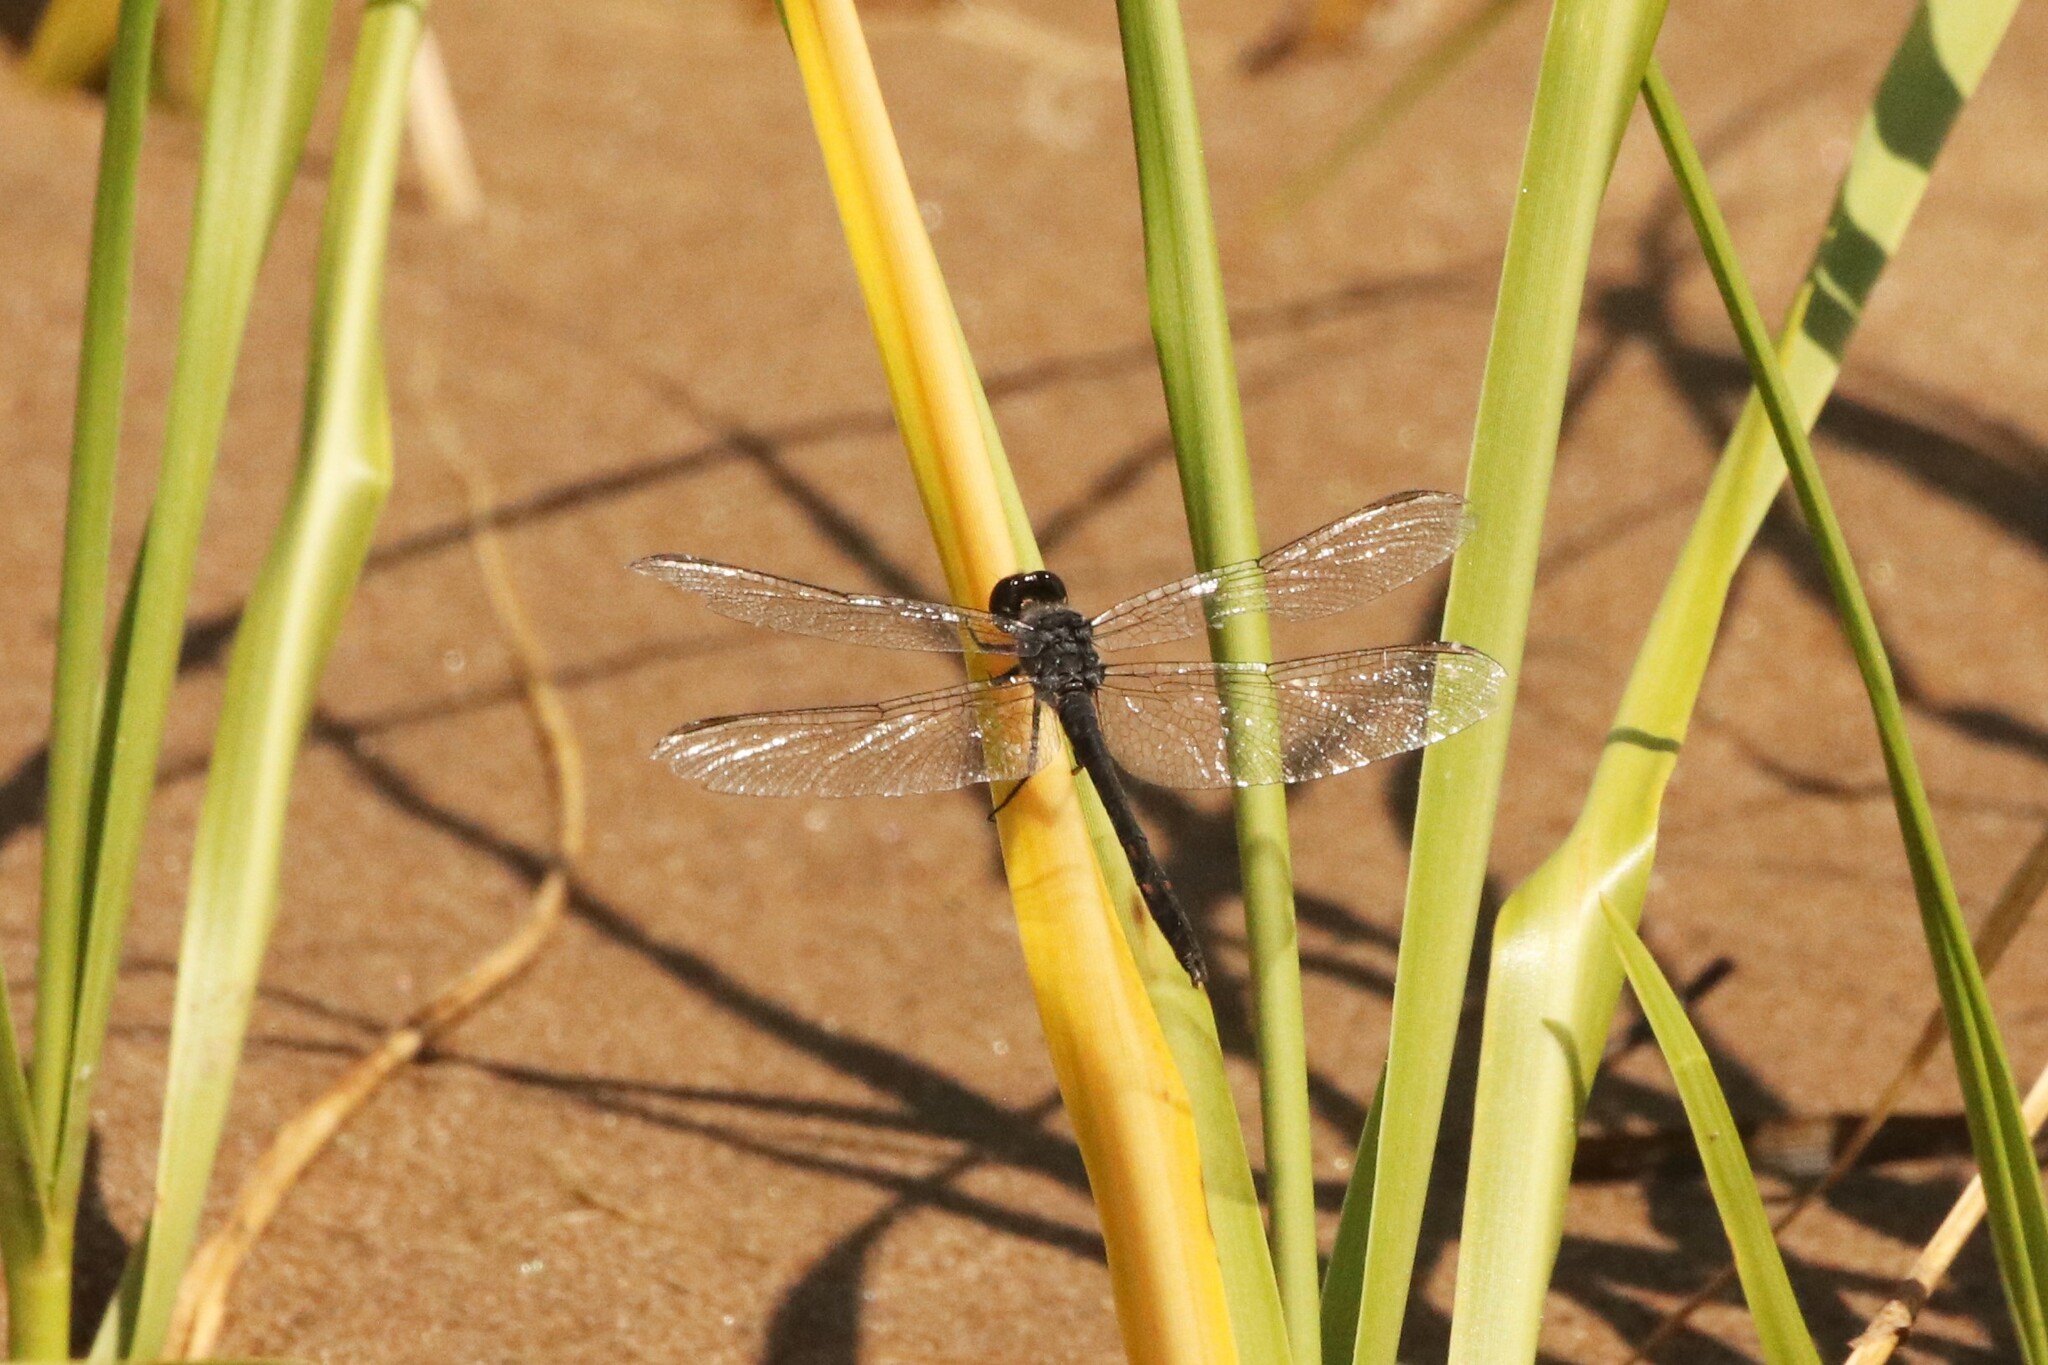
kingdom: Animalia
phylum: Arthropoda
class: Insecta
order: Odonata
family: Libellulidae
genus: Erythrodiplax
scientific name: Erythrodiplax berenice
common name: Seaside dragonlet
